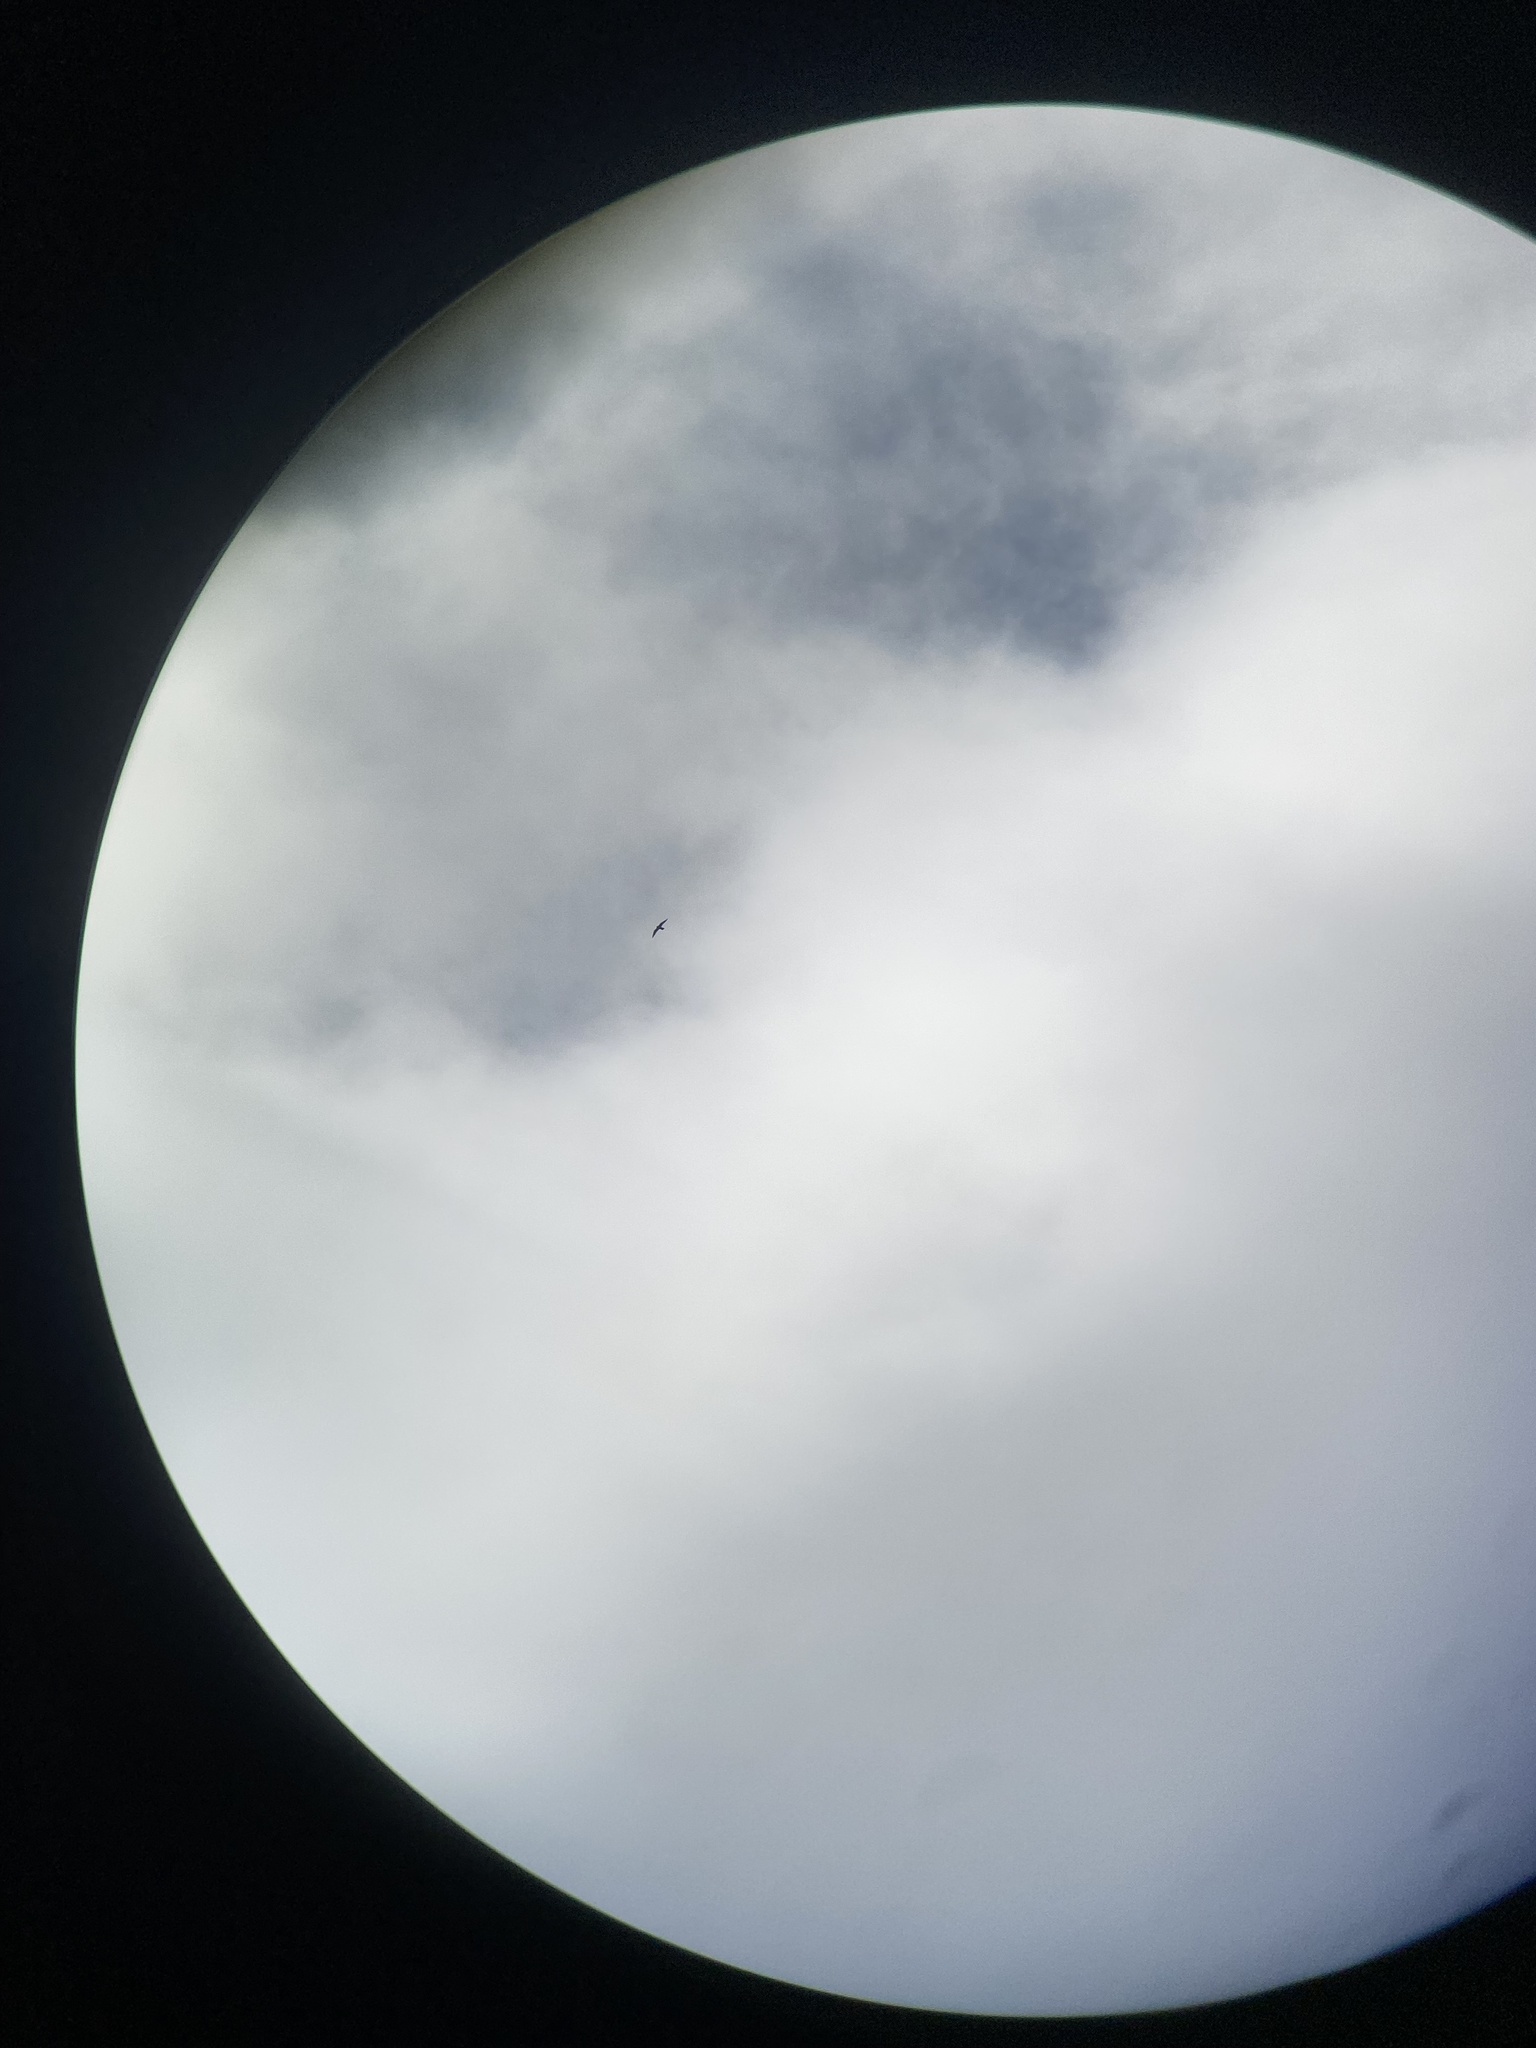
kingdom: Animalia
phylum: Chordata
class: Aves
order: Falconiformes
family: Falconidae
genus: Falco
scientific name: Falco peregrinus
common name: Peregrine falcon
